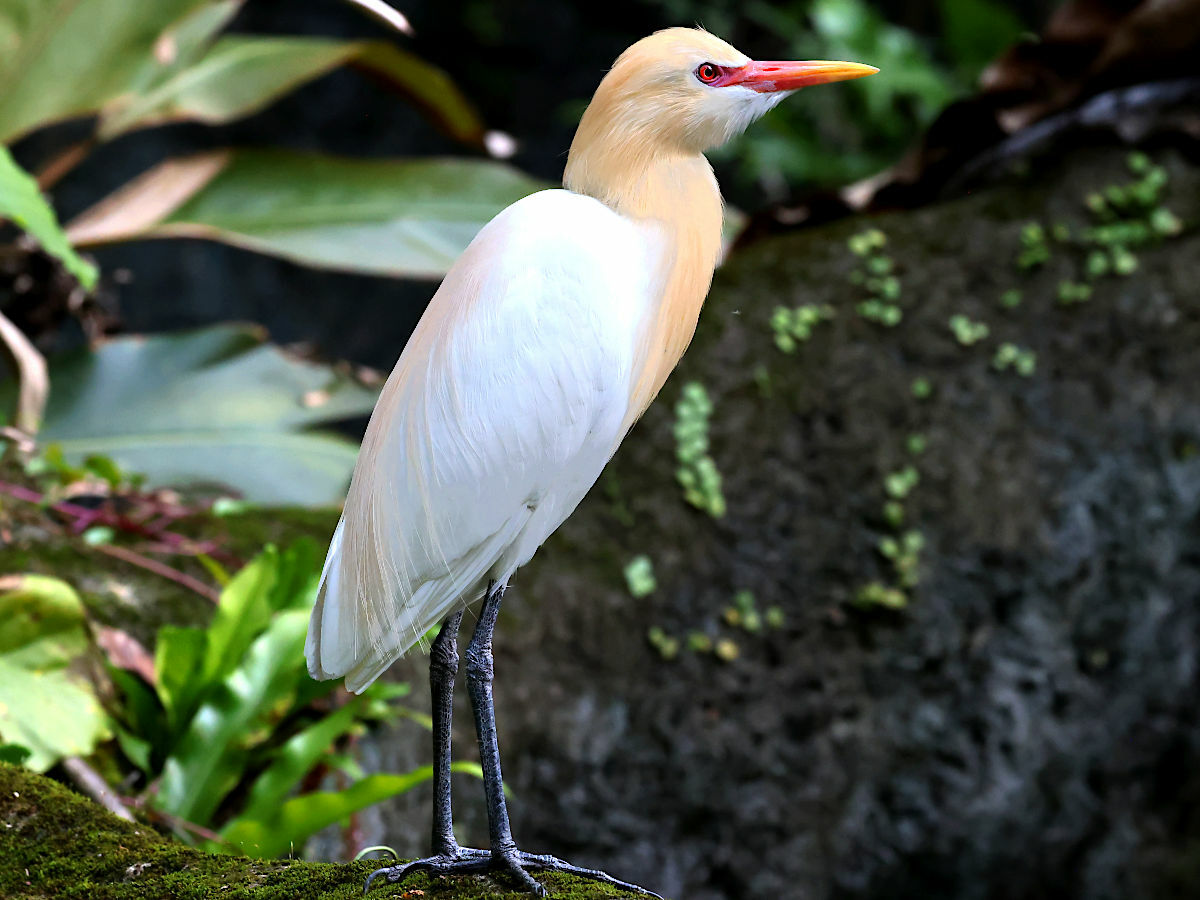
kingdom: Animalia
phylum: Chordata
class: Aves
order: Pelecaniformes
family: Ardeidae
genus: Bubulcus
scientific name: Bubulcus coromandus
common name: Eastern cattle egret
